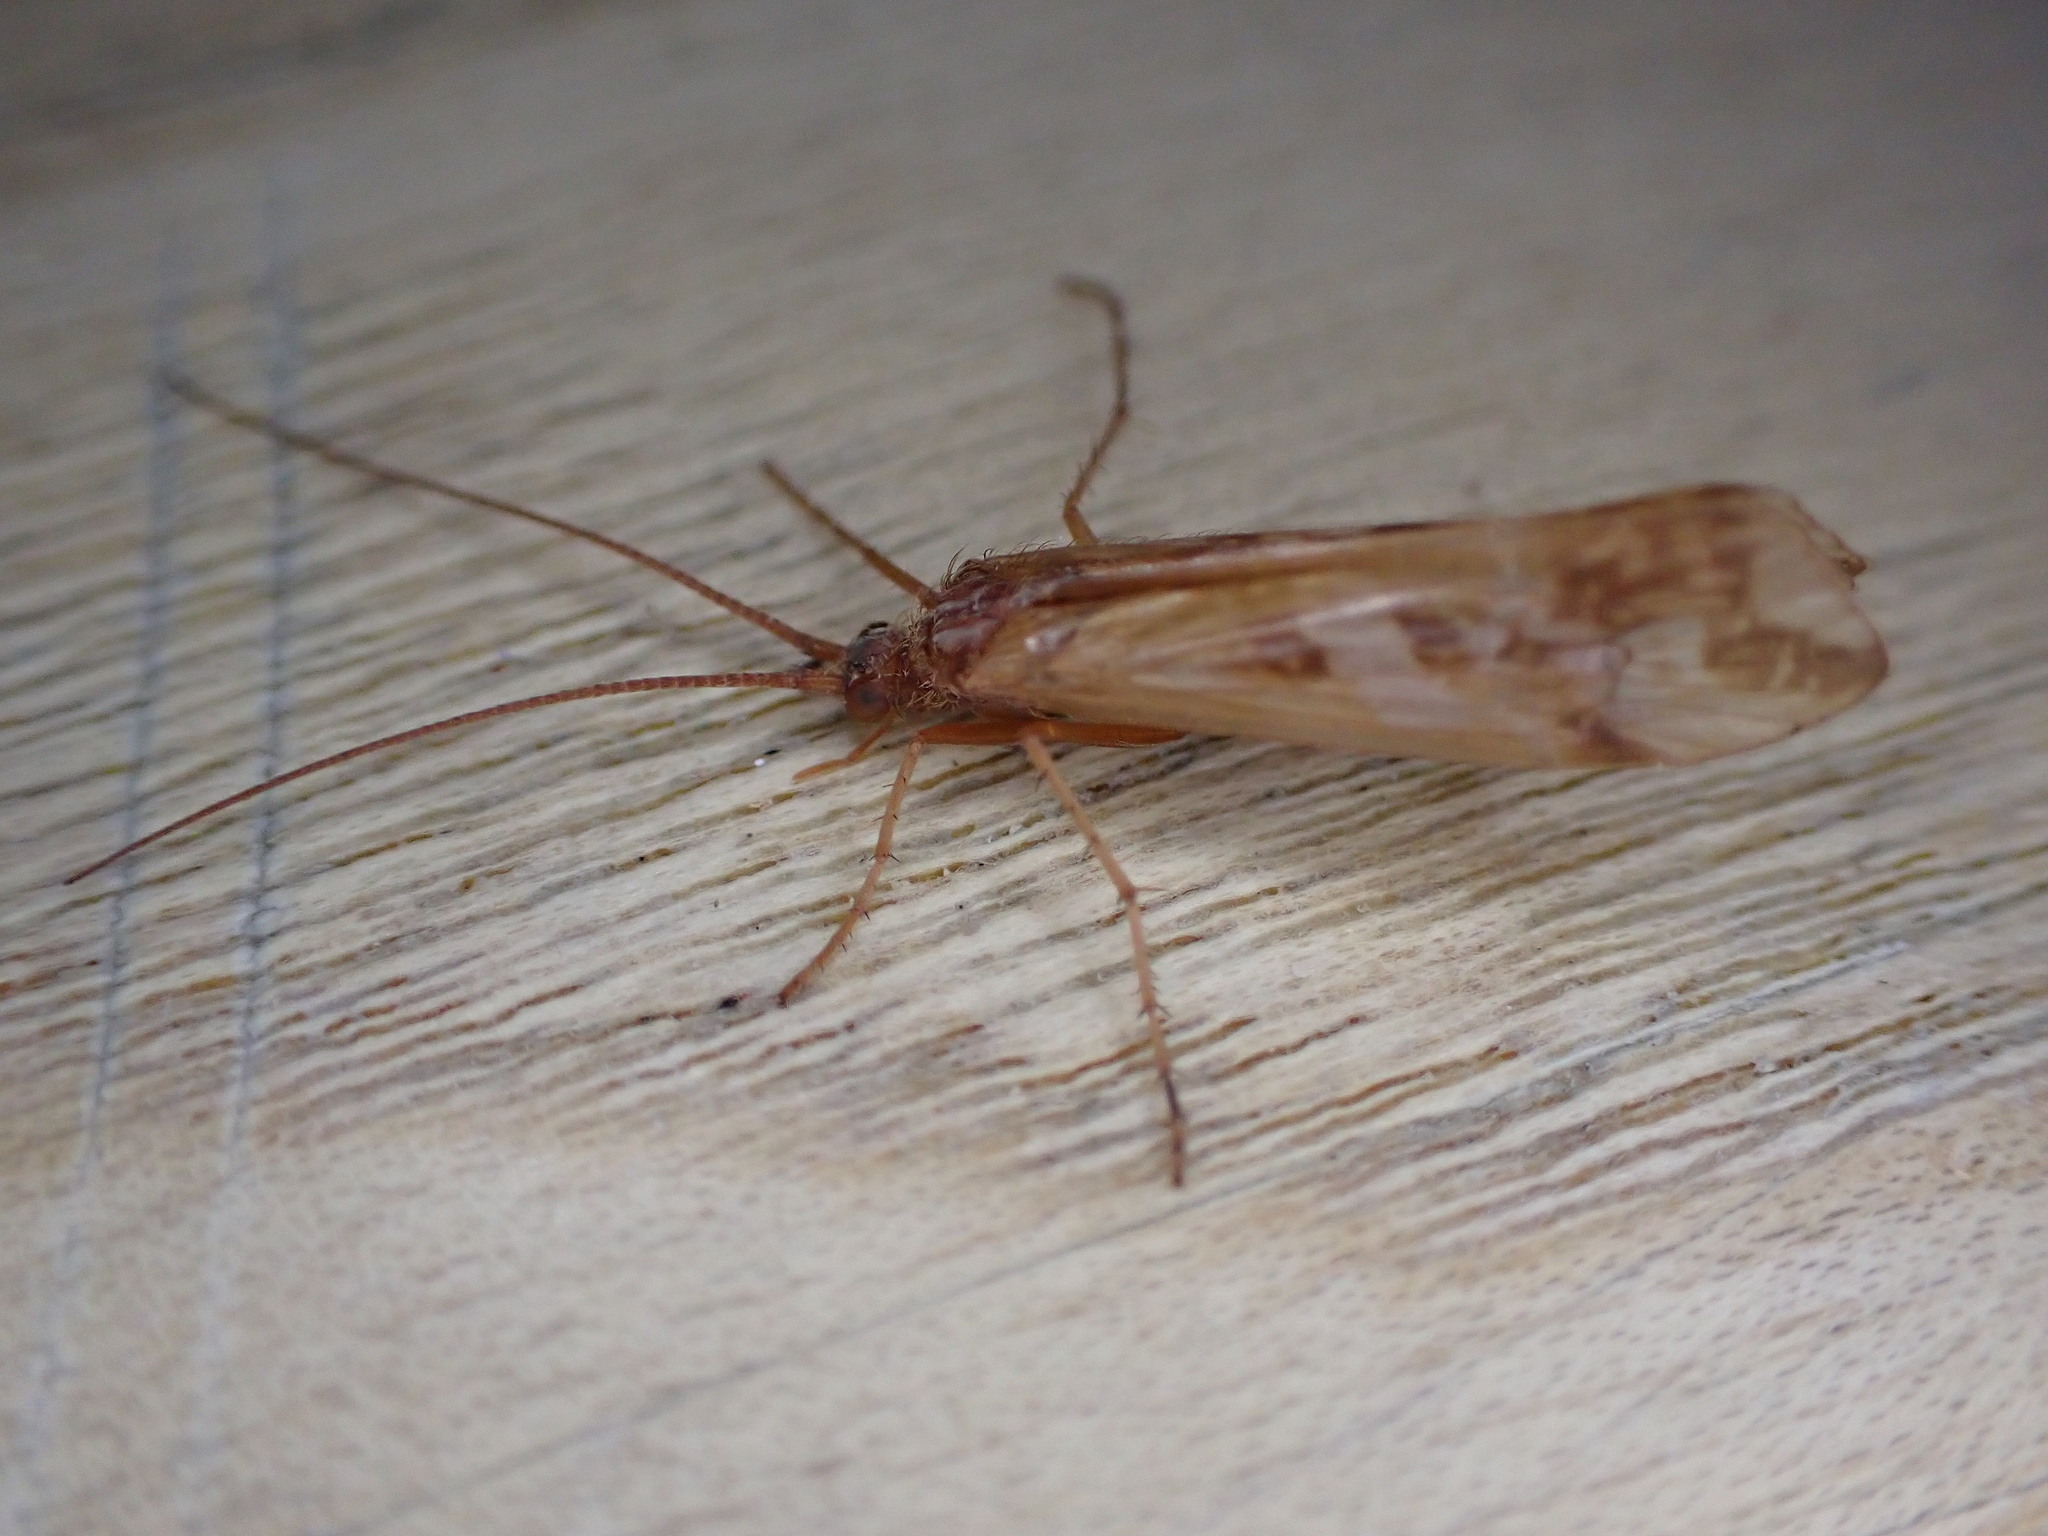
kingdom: Animalia
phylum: Arthropoda
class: Insecta
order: Trichoptera
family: Limnephilidae
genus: Limnephilus
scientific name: Limnephilus lunatus
